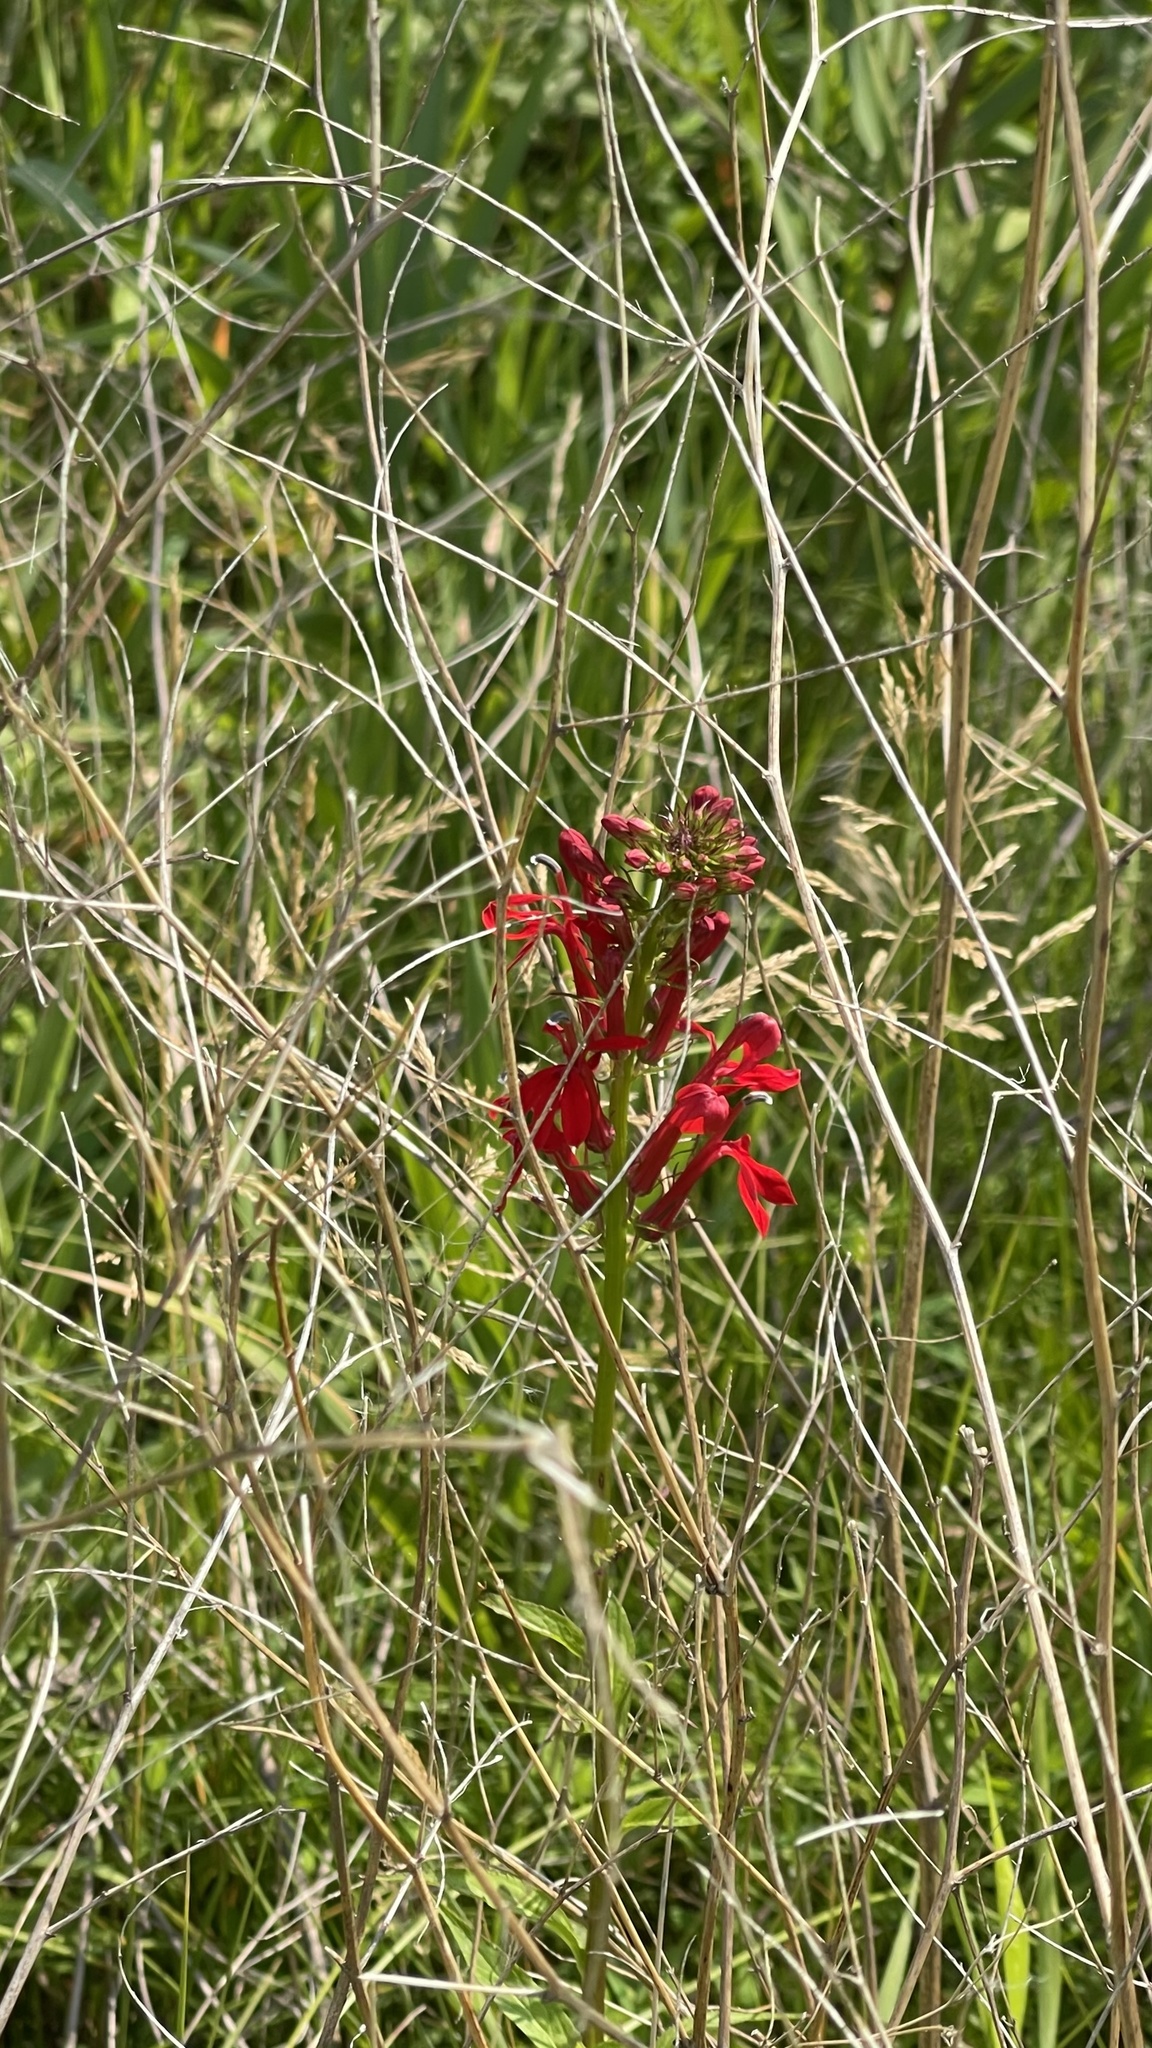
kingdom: Plantae
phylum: Tracheophyta
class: Magnoliopsida
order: Asterales
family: Campanulaceae
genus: Lobelia
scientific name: Lobelia cardinalis
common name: Cardinal flower
